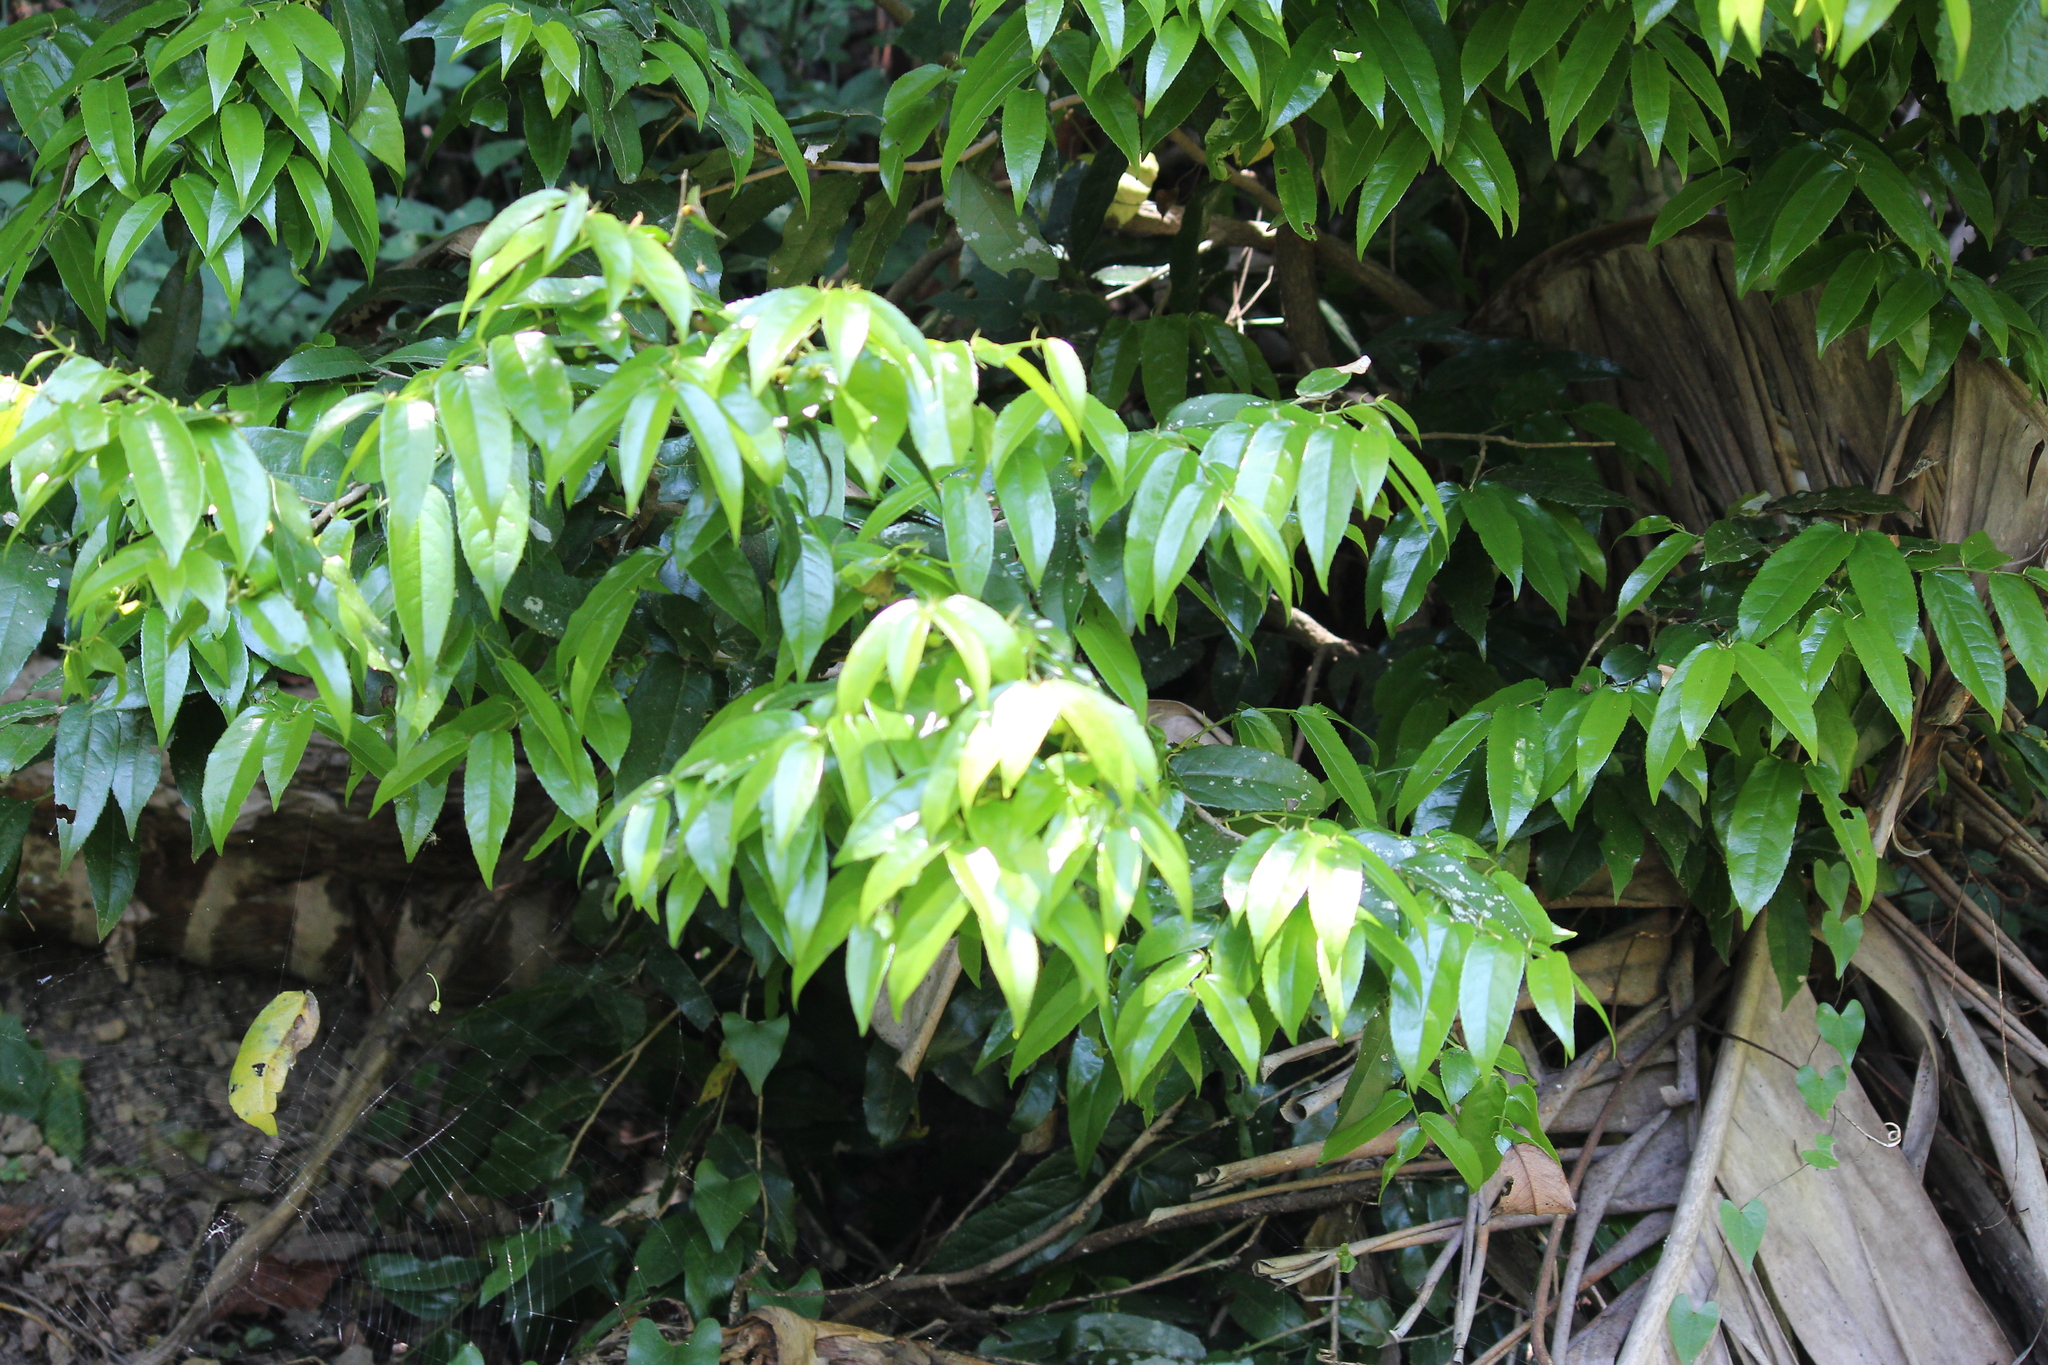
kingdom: Plantae
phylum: Tracheophyta
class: Magnoliopsida
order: Malpighiales
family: Putranjivaceae
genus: Drypetes
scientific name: Drypetes arguta
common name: Water ironplum
